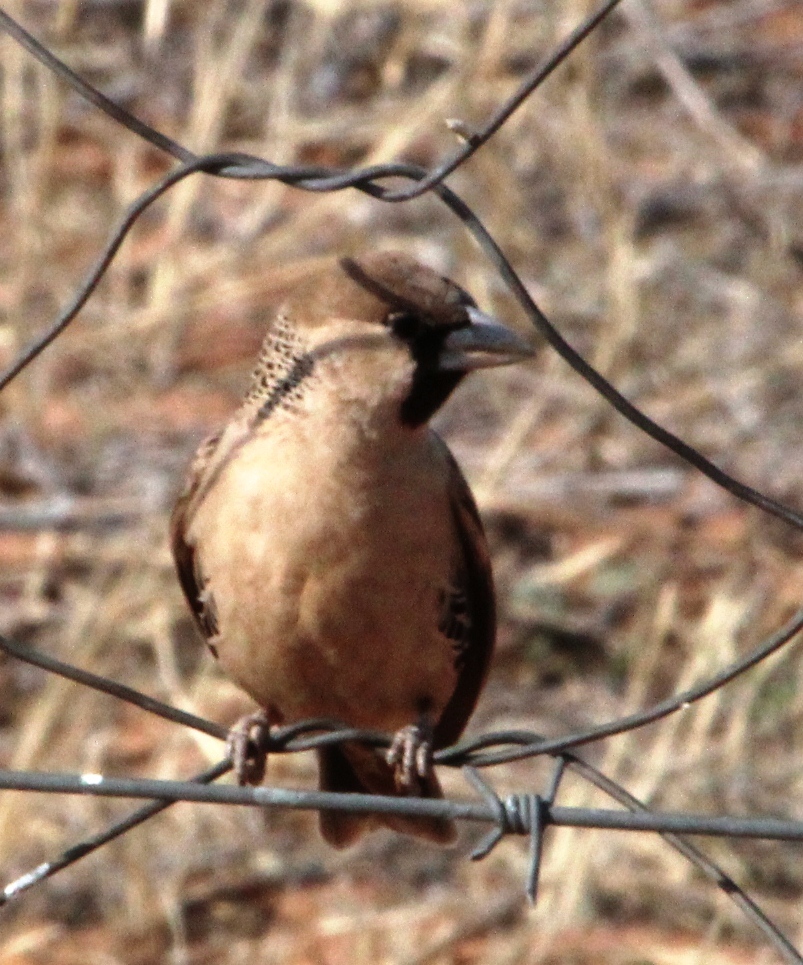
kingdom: Animalia
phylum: Chordata
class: Aves
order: Passeriformes
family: Passeridae
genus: Philetairus
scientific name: Philetairus socius
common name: Sociable weaver
